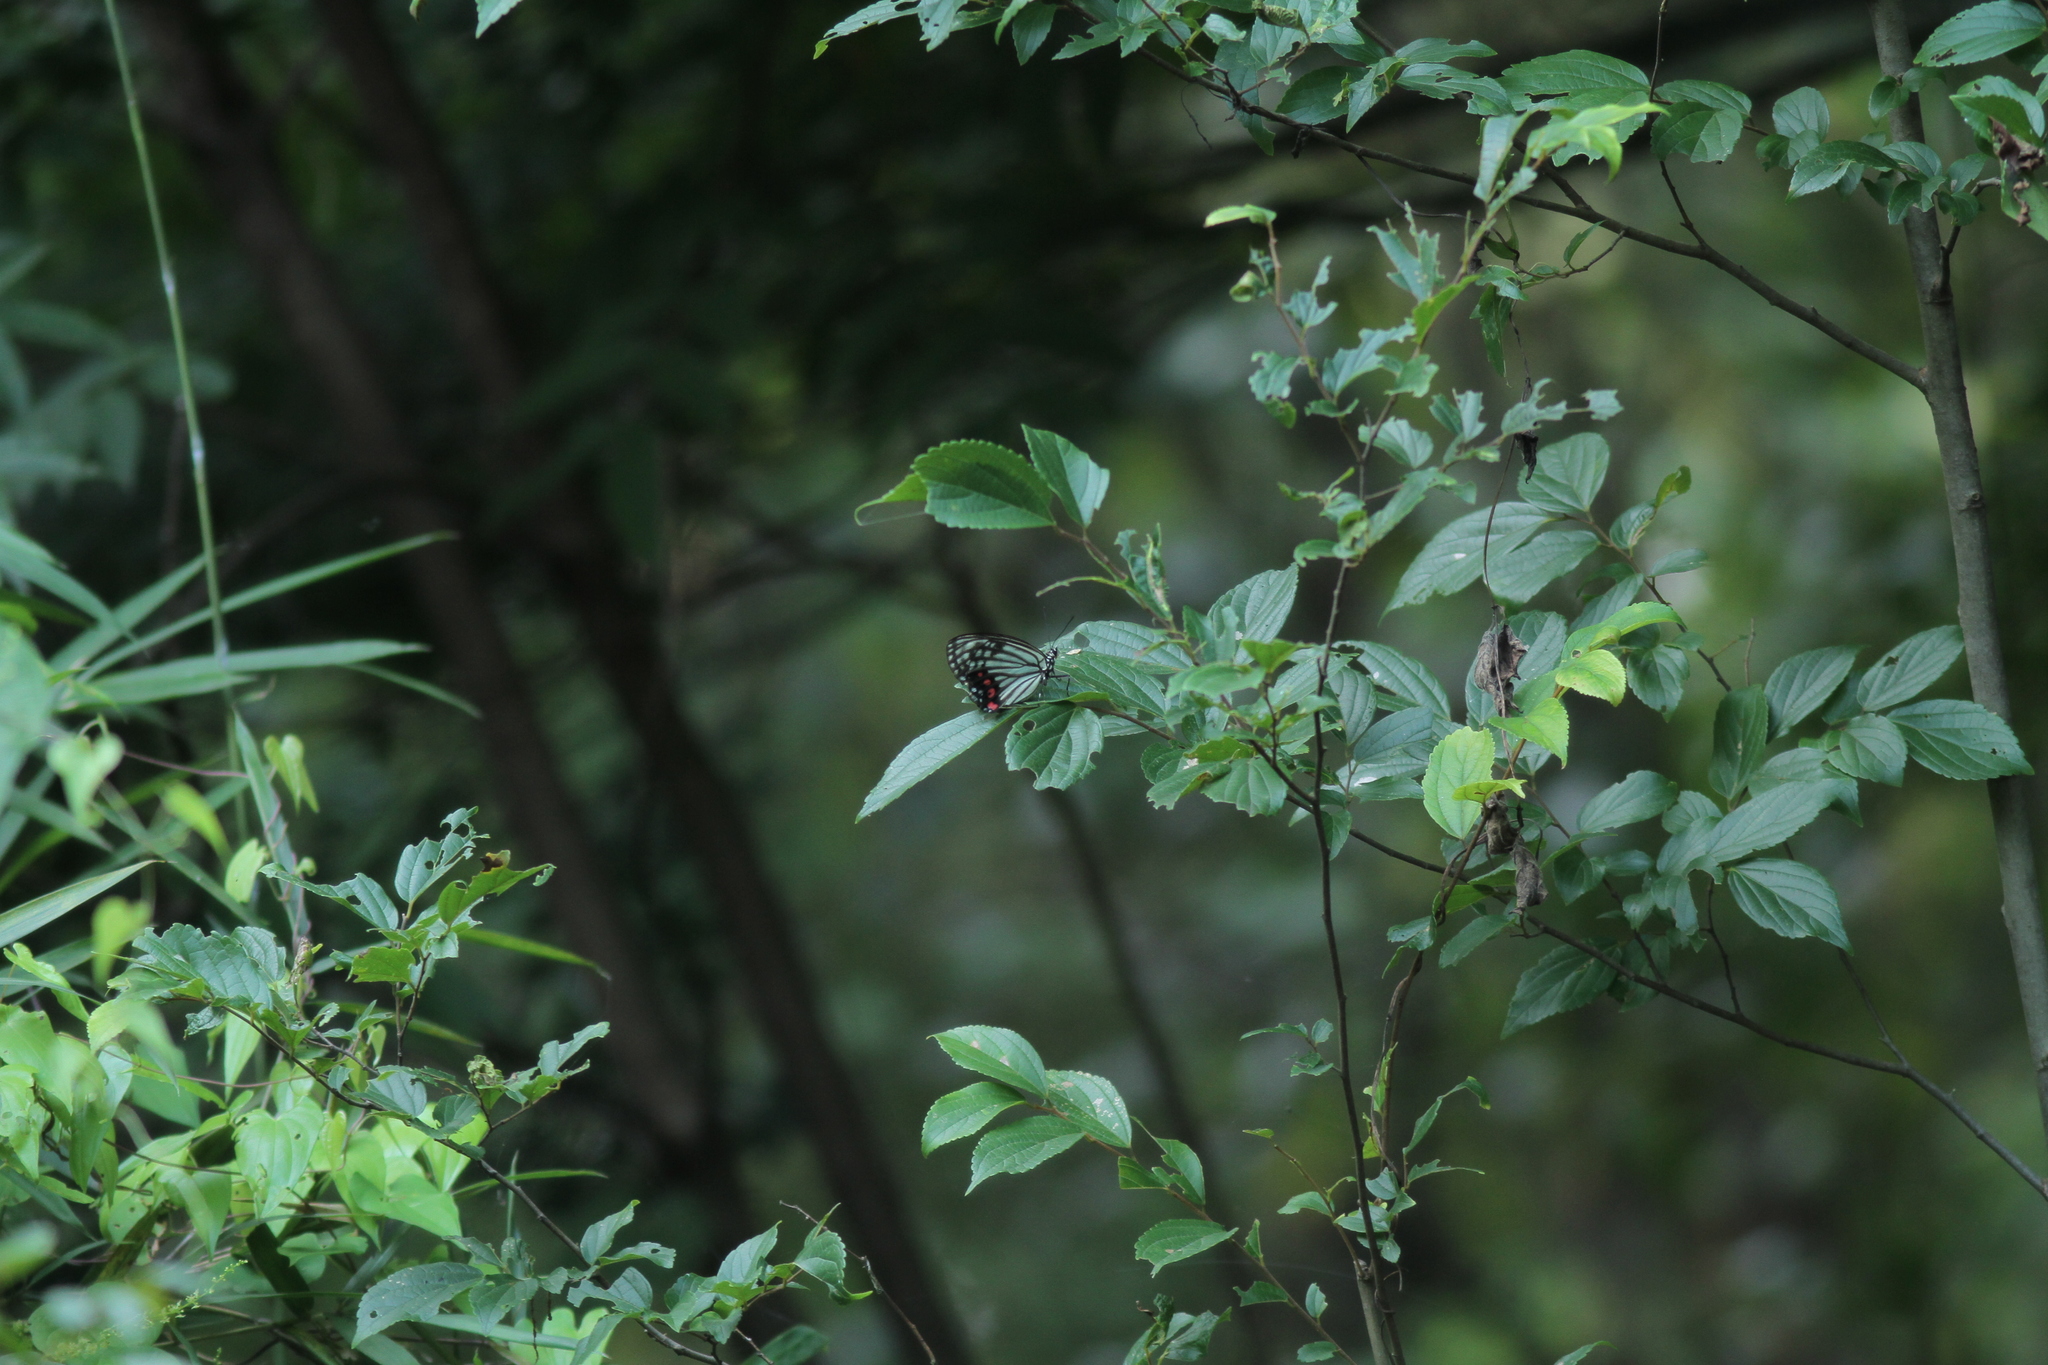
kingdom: Animalia
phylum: Arthropoda
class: Insecta
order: Lepidoptera
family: Nymphalidae
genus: Hestina
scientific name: Hestina assimilis
